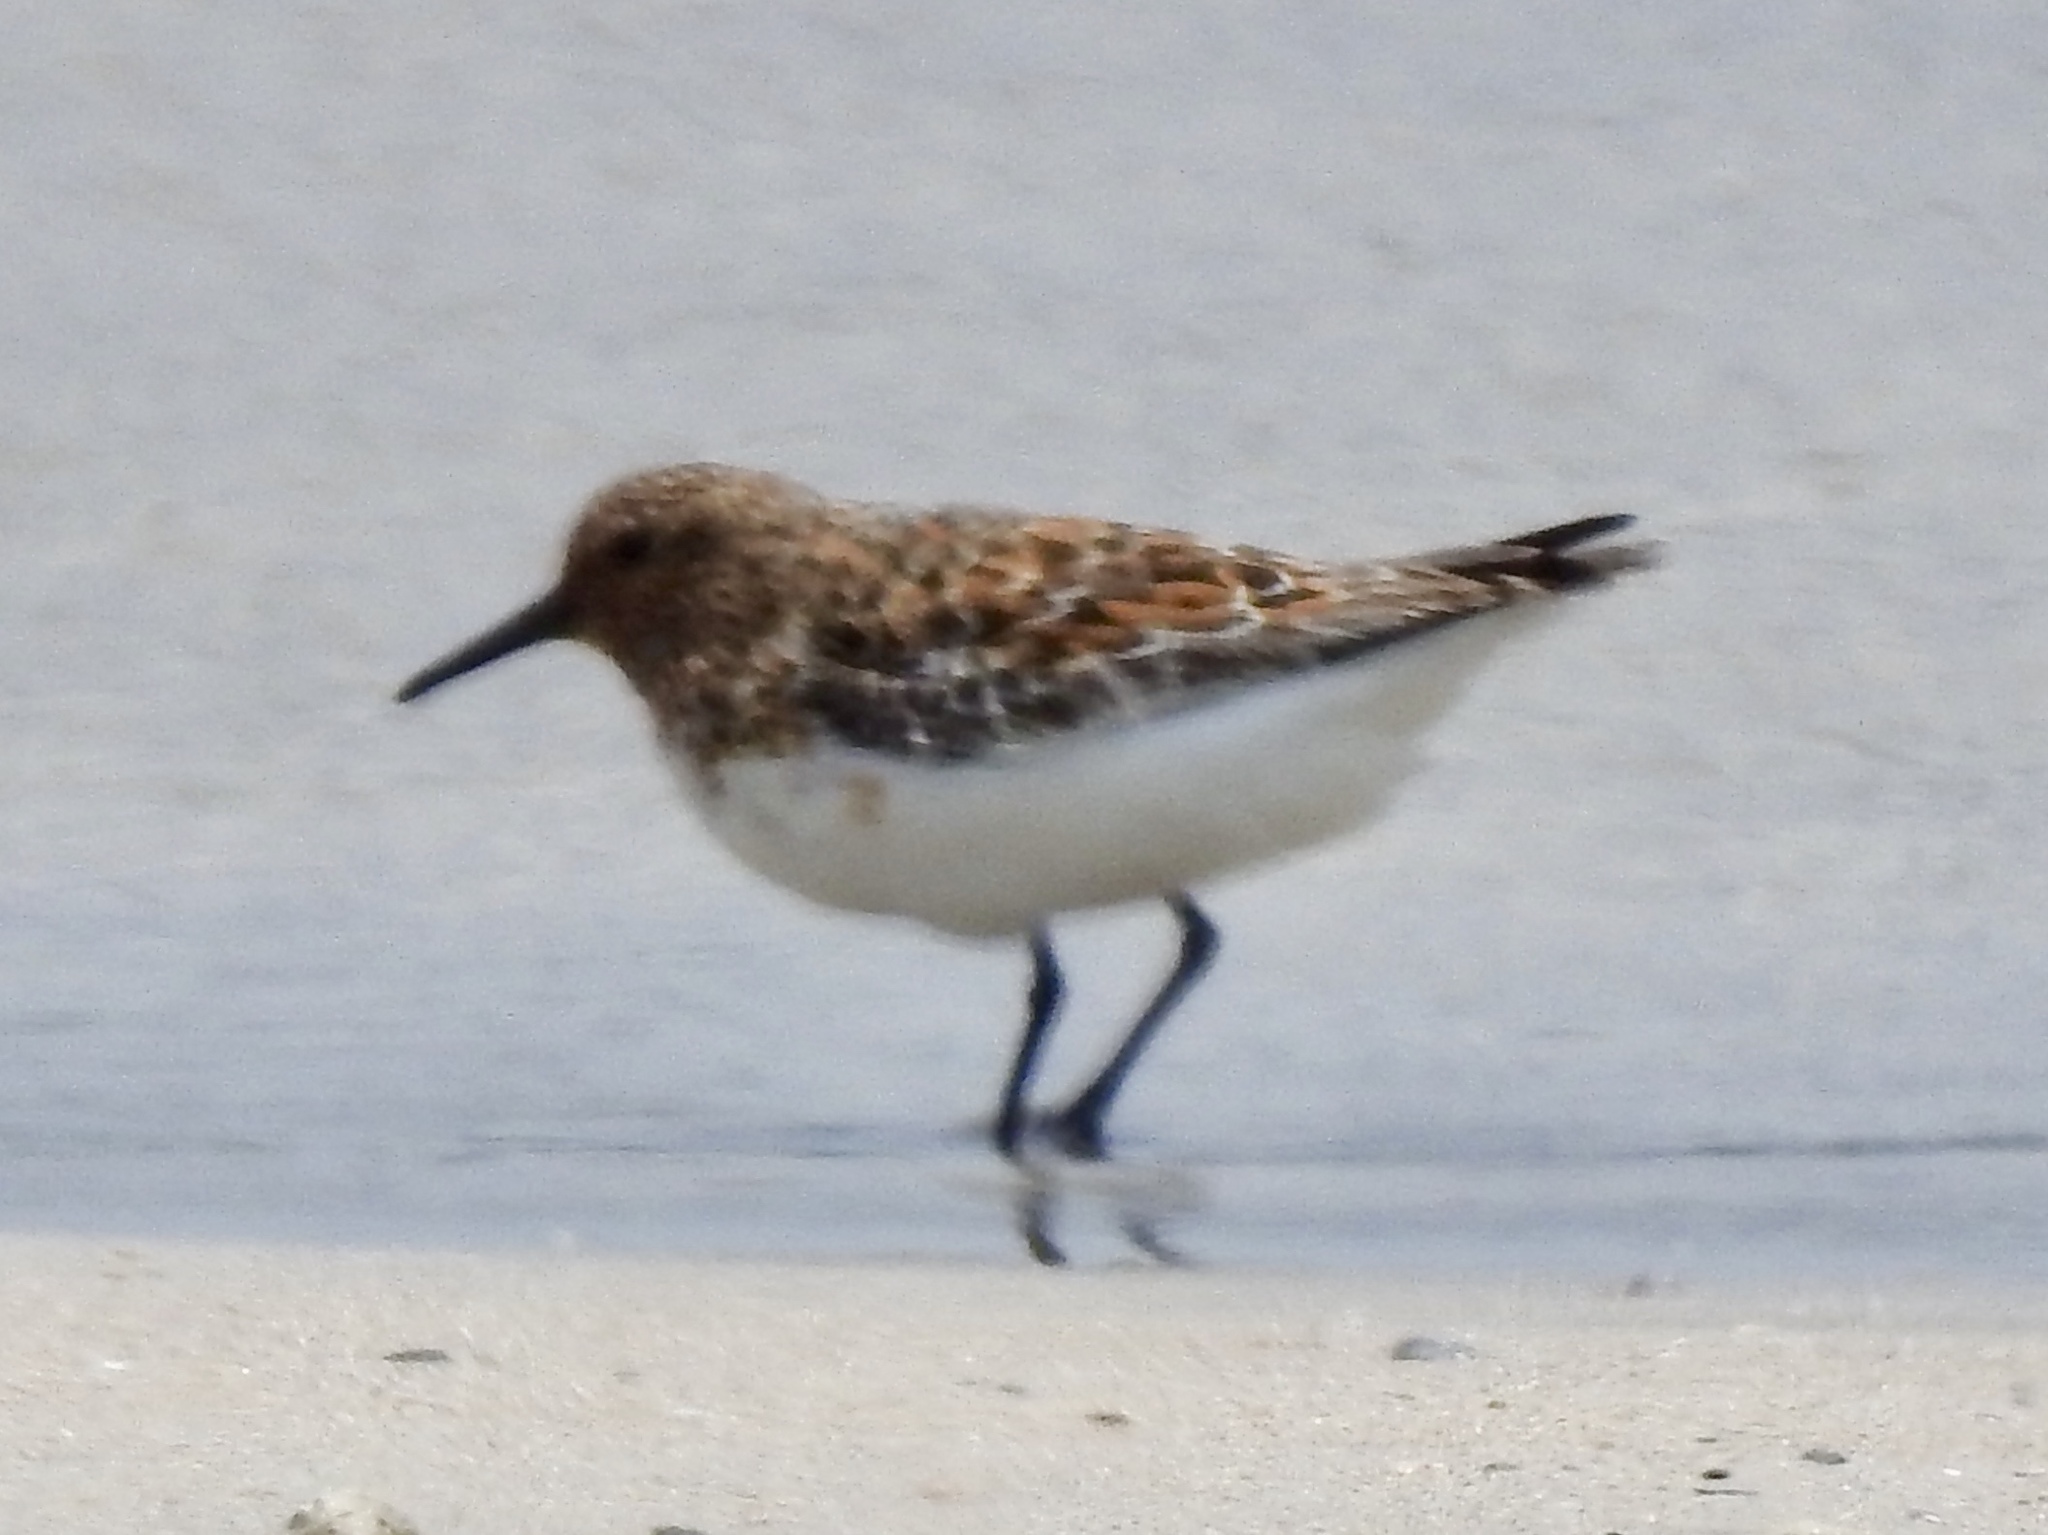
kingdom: Animalia
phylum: Chordata
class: Aves
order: Charadriiformes
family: Scolopacidae
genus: Calidris
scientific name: Calidris alba
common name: Sanderling
